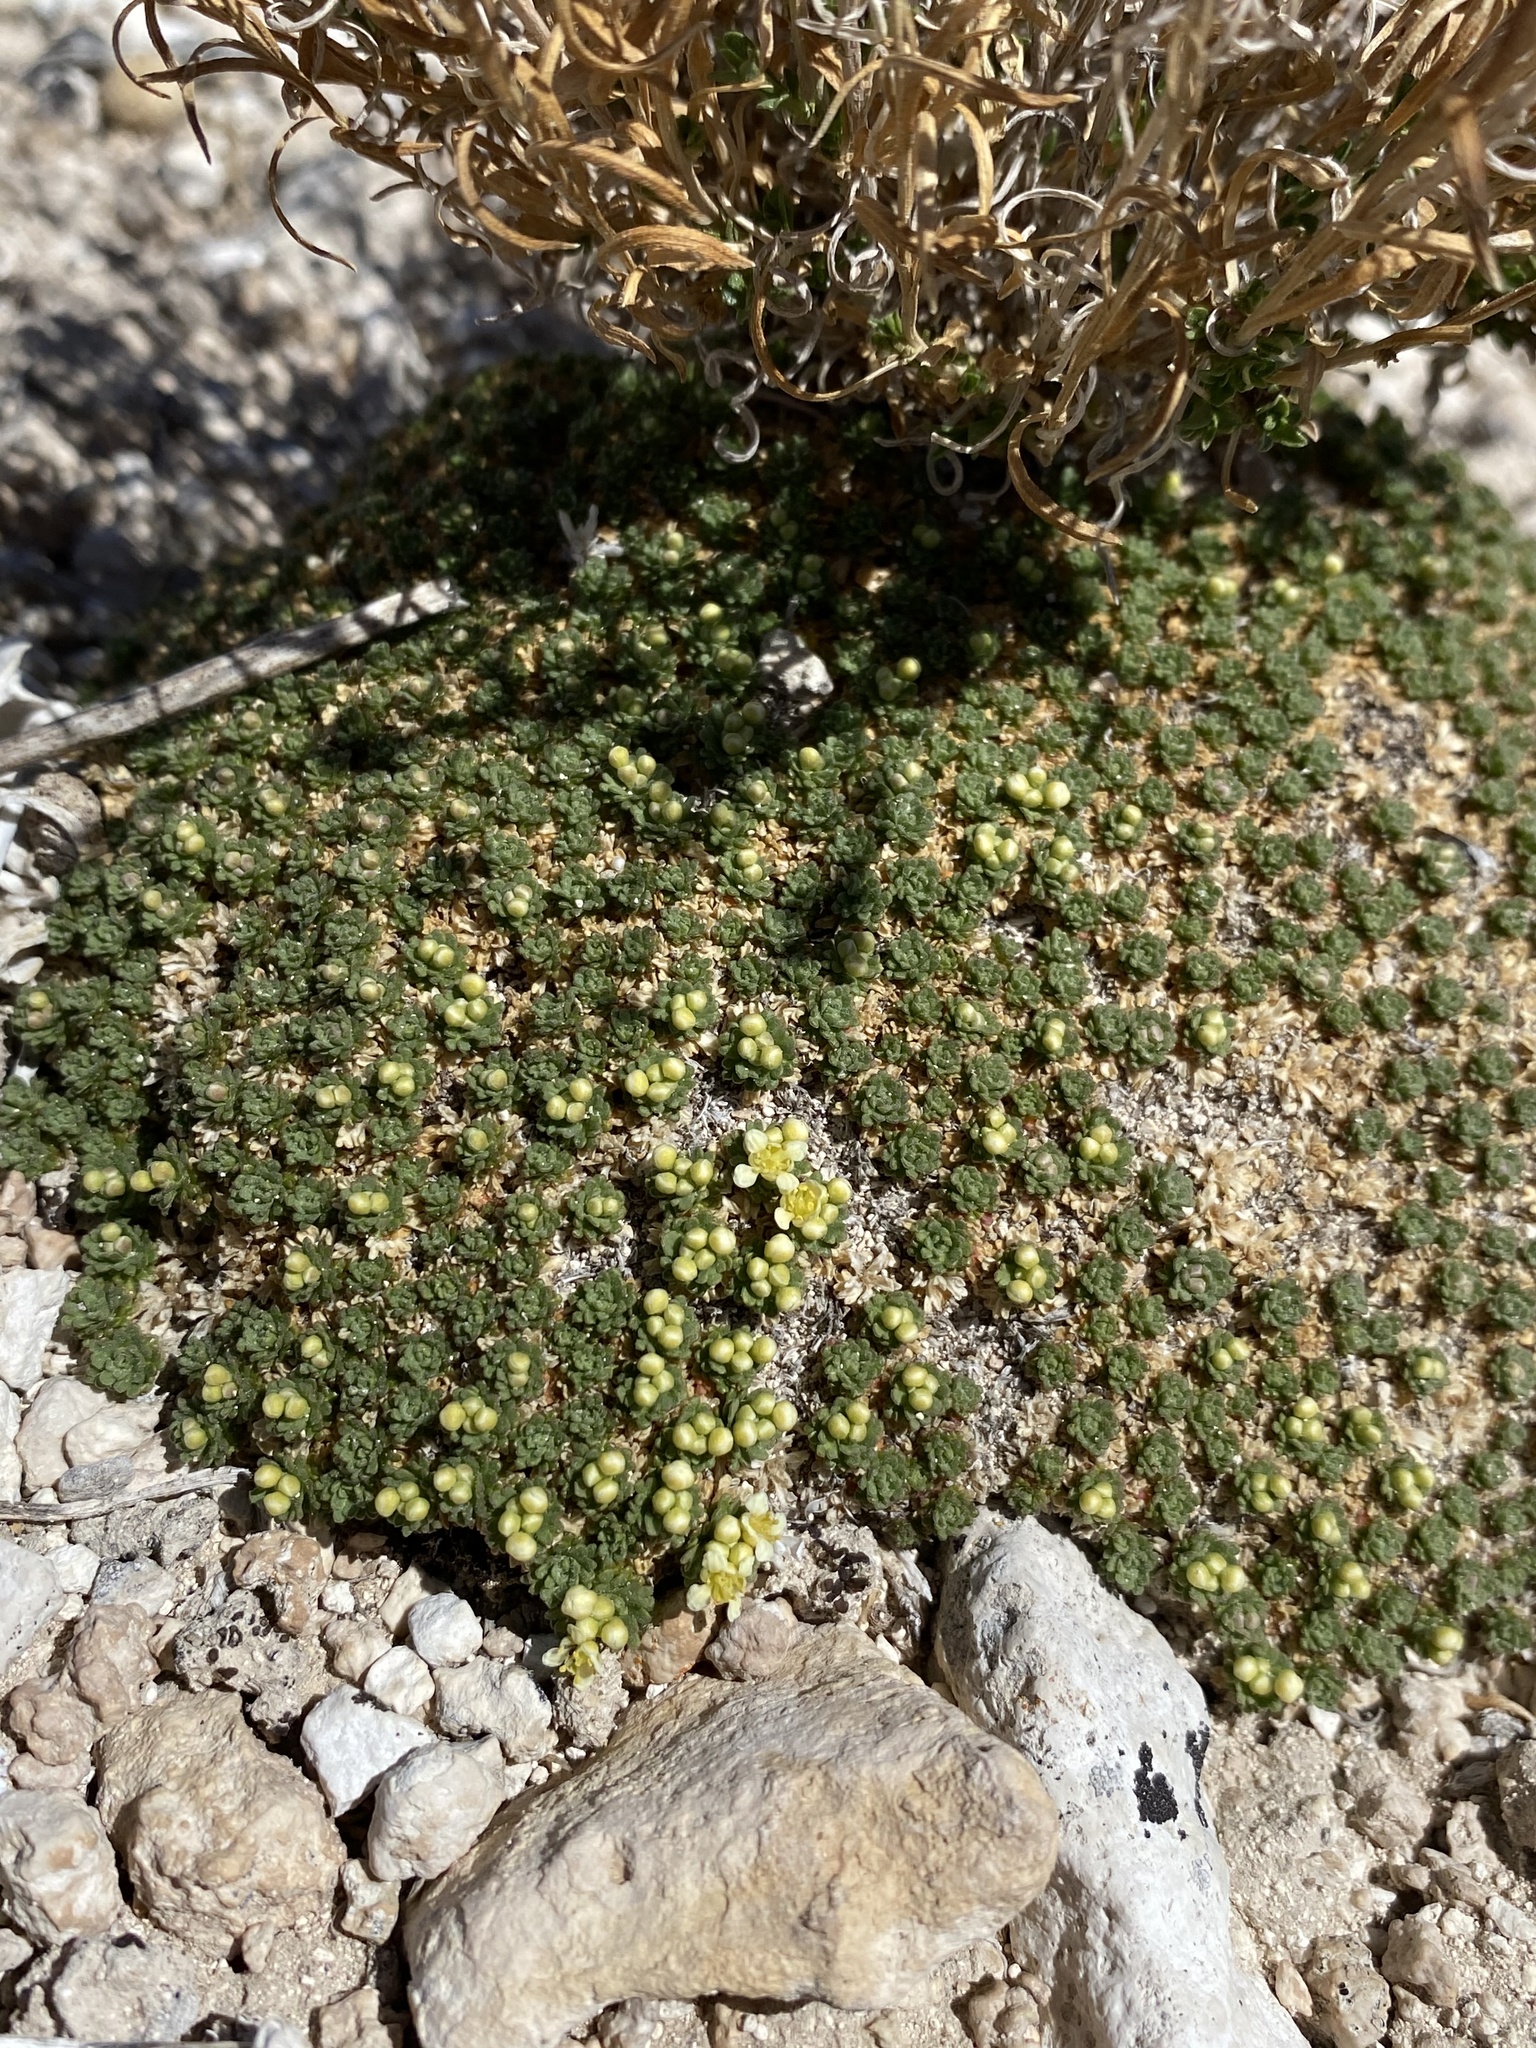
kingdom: Plantae
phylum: Tracheophyta
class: Magnoliopsida
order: Brassicales
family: Brassicaceae
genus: Lepidium
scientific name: Lepidium nanum
